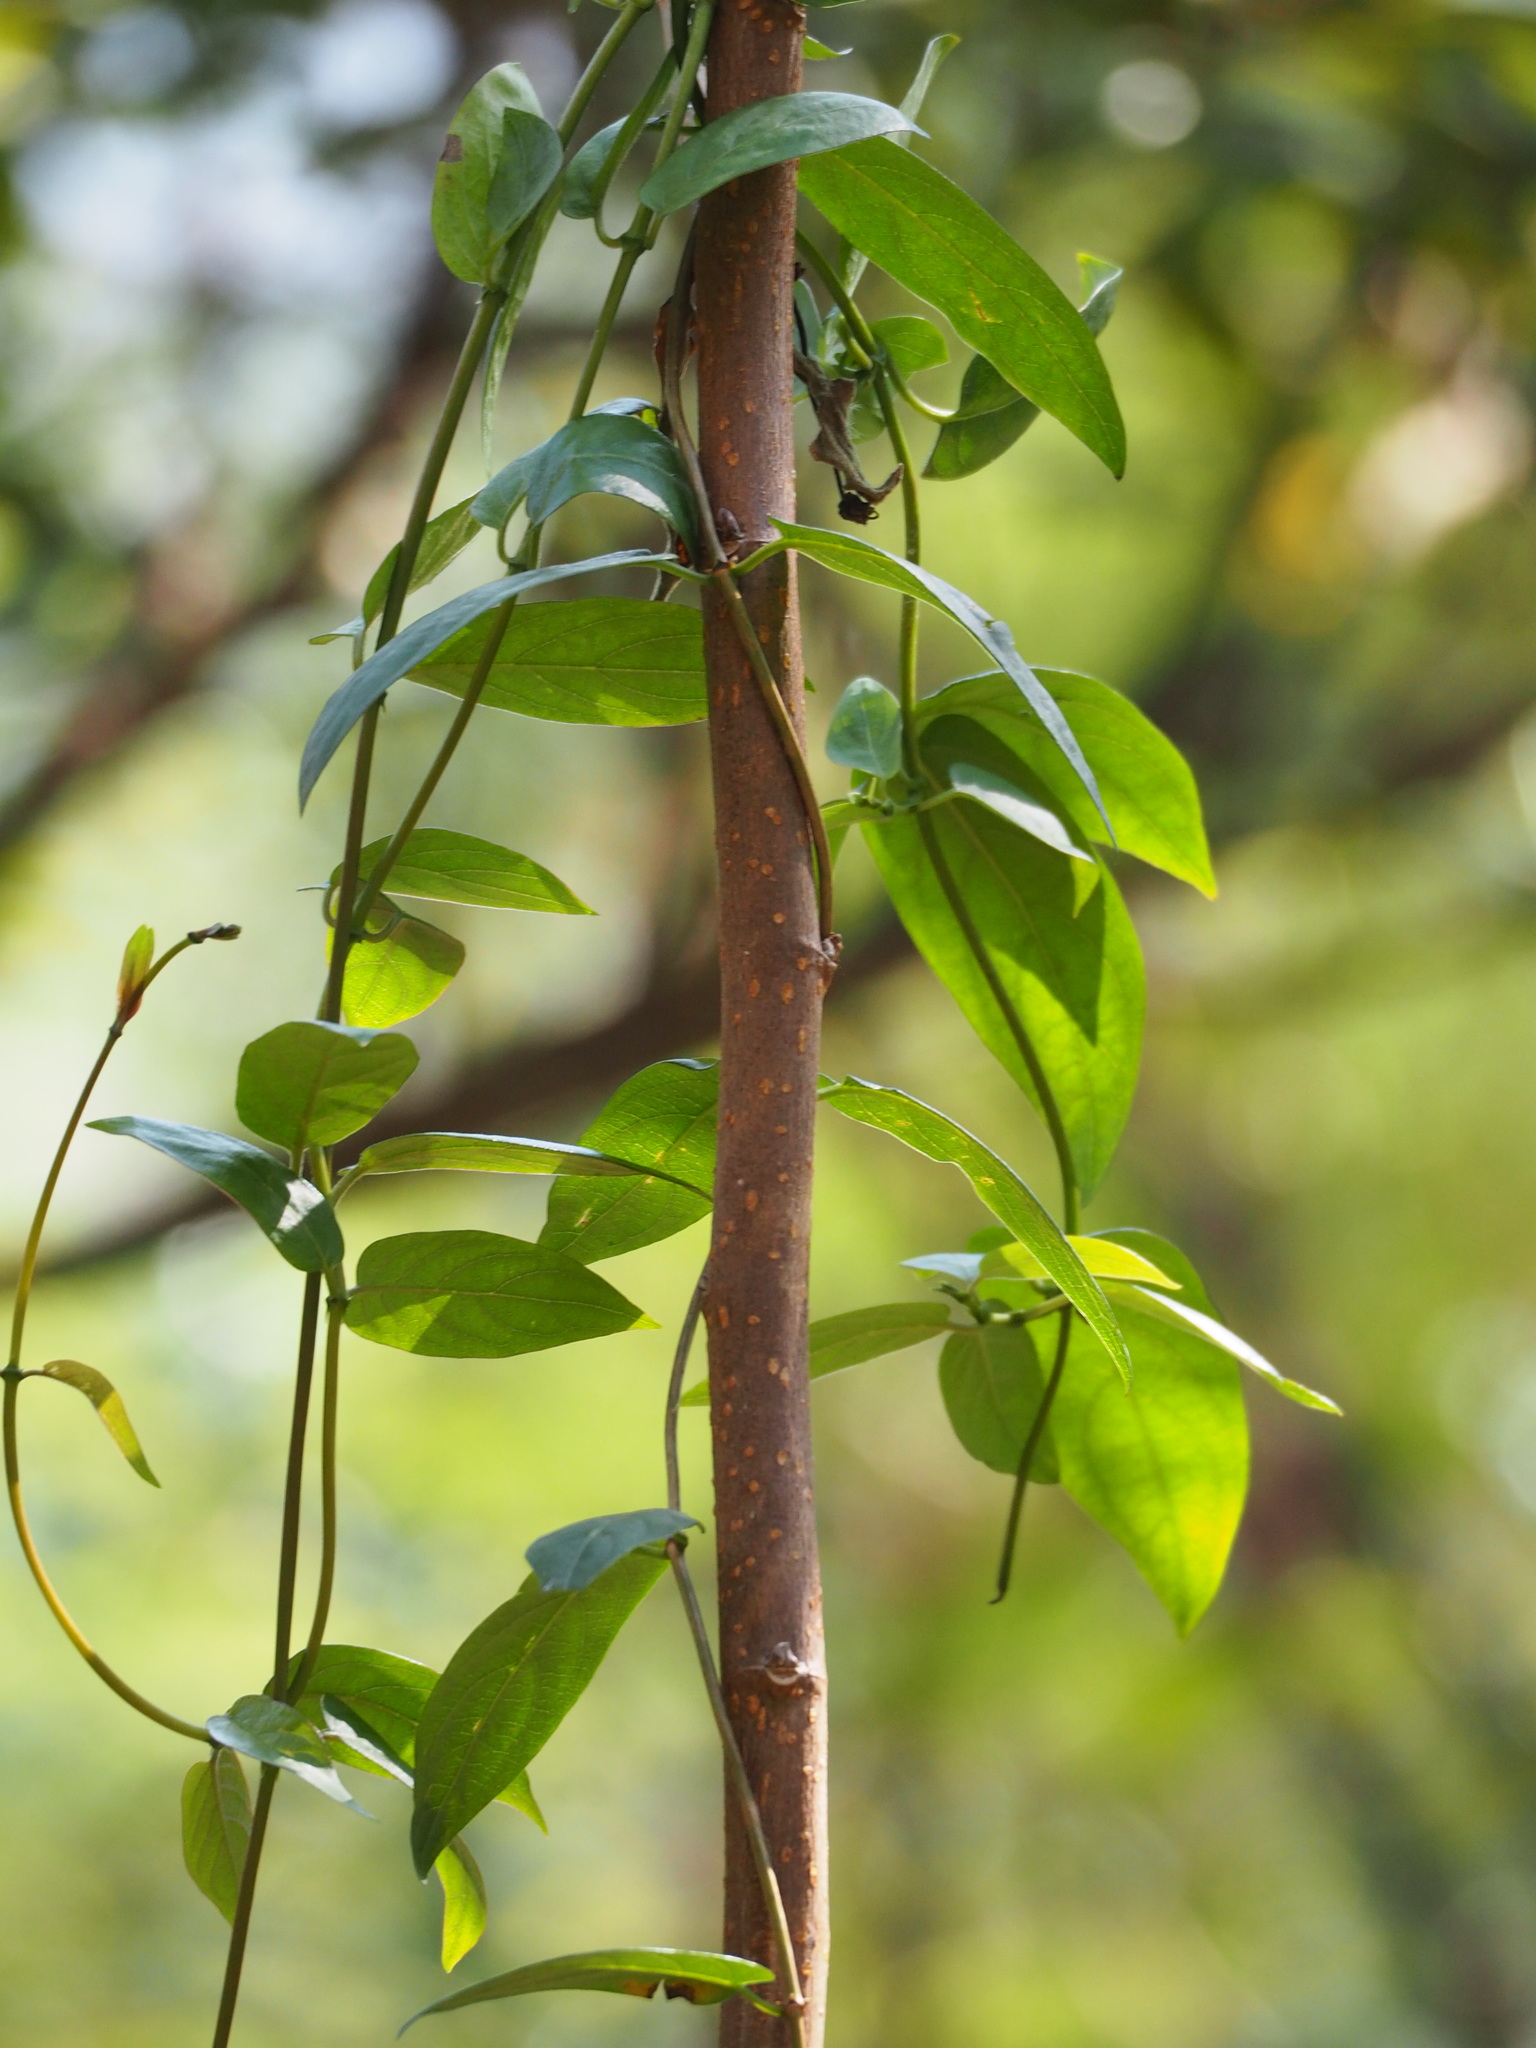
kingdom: Plantae
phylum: Tracheophyta
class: Magnoliopsida
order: Gentianales
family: Rubiaceae
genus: Paederia
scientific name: Paederia foetida
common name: Stinkvine
